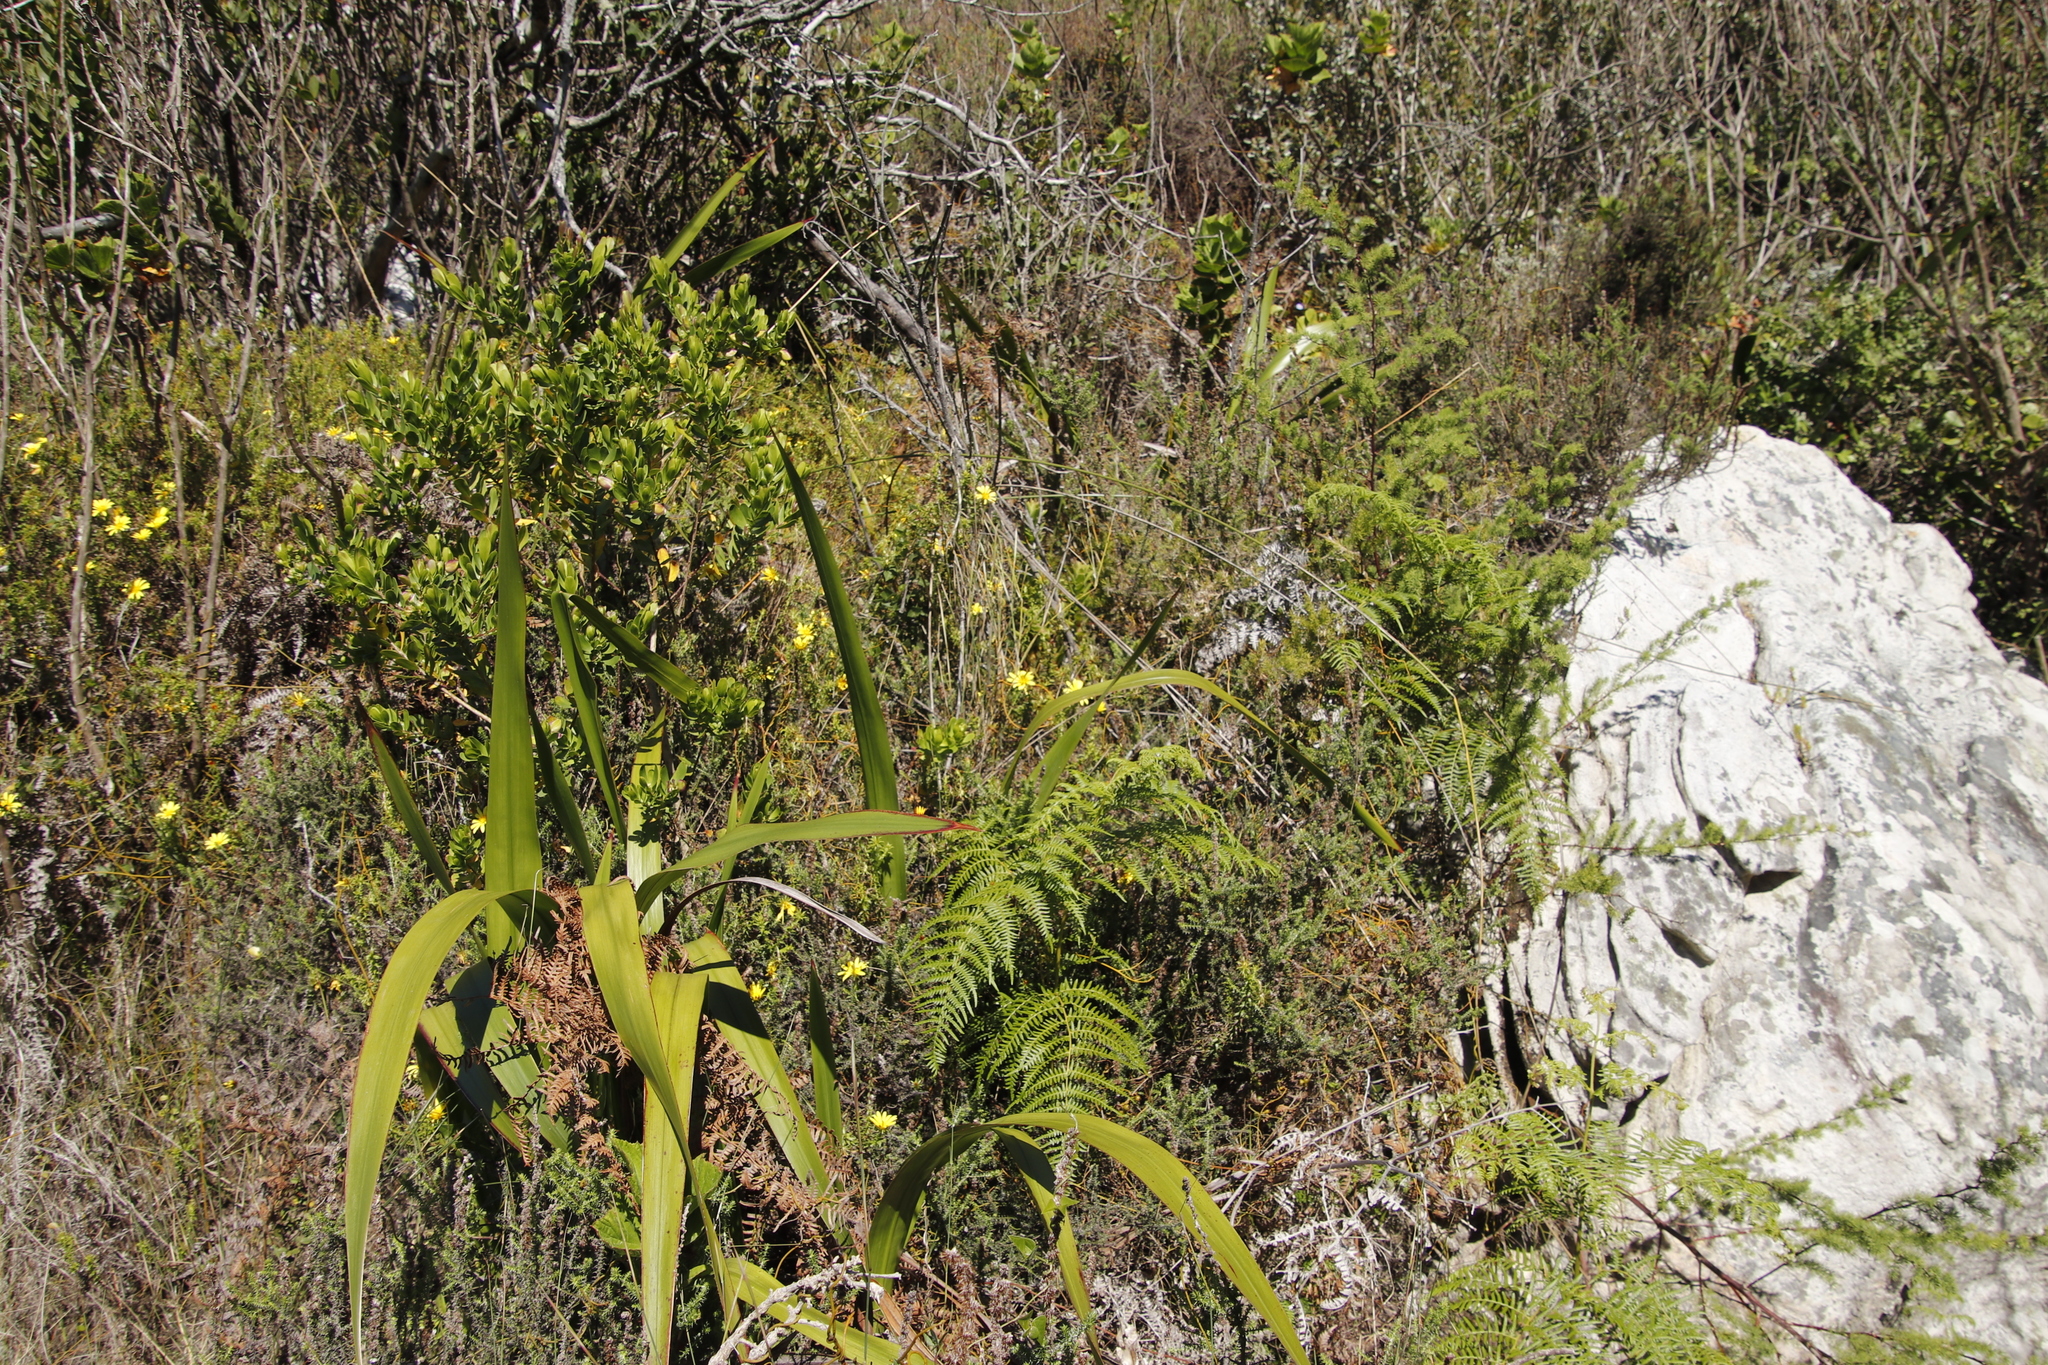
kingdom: Plantae
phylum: Tracheophyta
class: Magnoliopsida
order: Asterales
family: Asteraceae
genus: Cullumia
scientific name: Cullumia setosa
